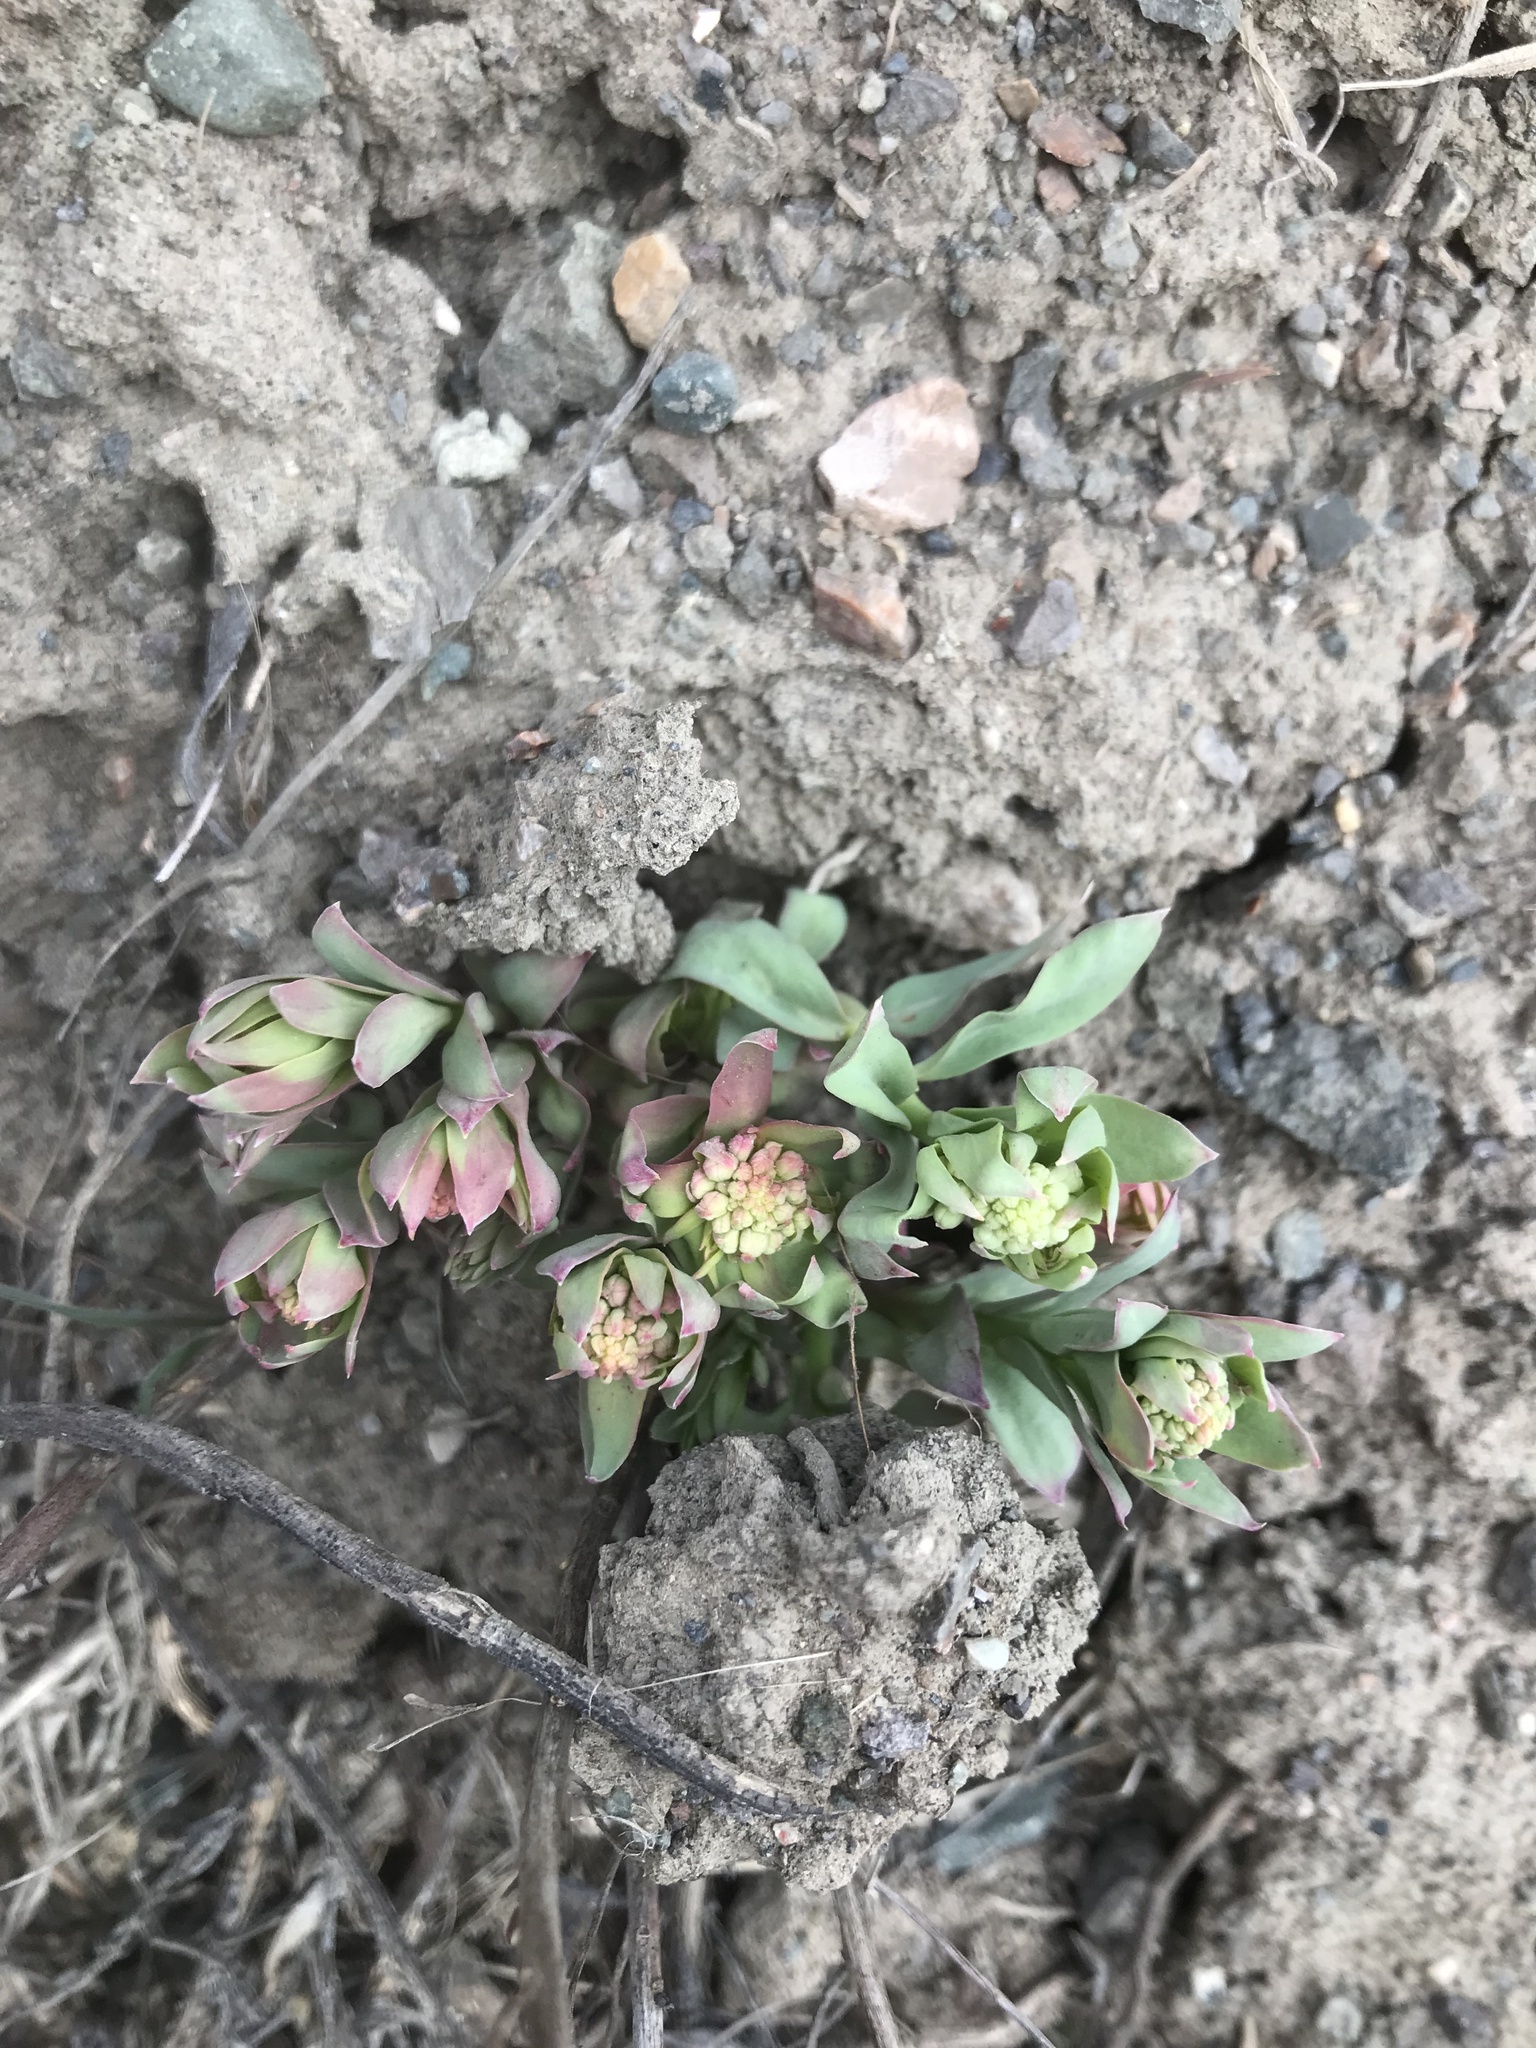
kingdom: Plantae
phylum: Tracheophyta
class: Magnoliopsida
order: Santalales
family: Comandraceae
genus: Comandra
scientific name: Comandra umbellata
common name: Bastard toadflax
